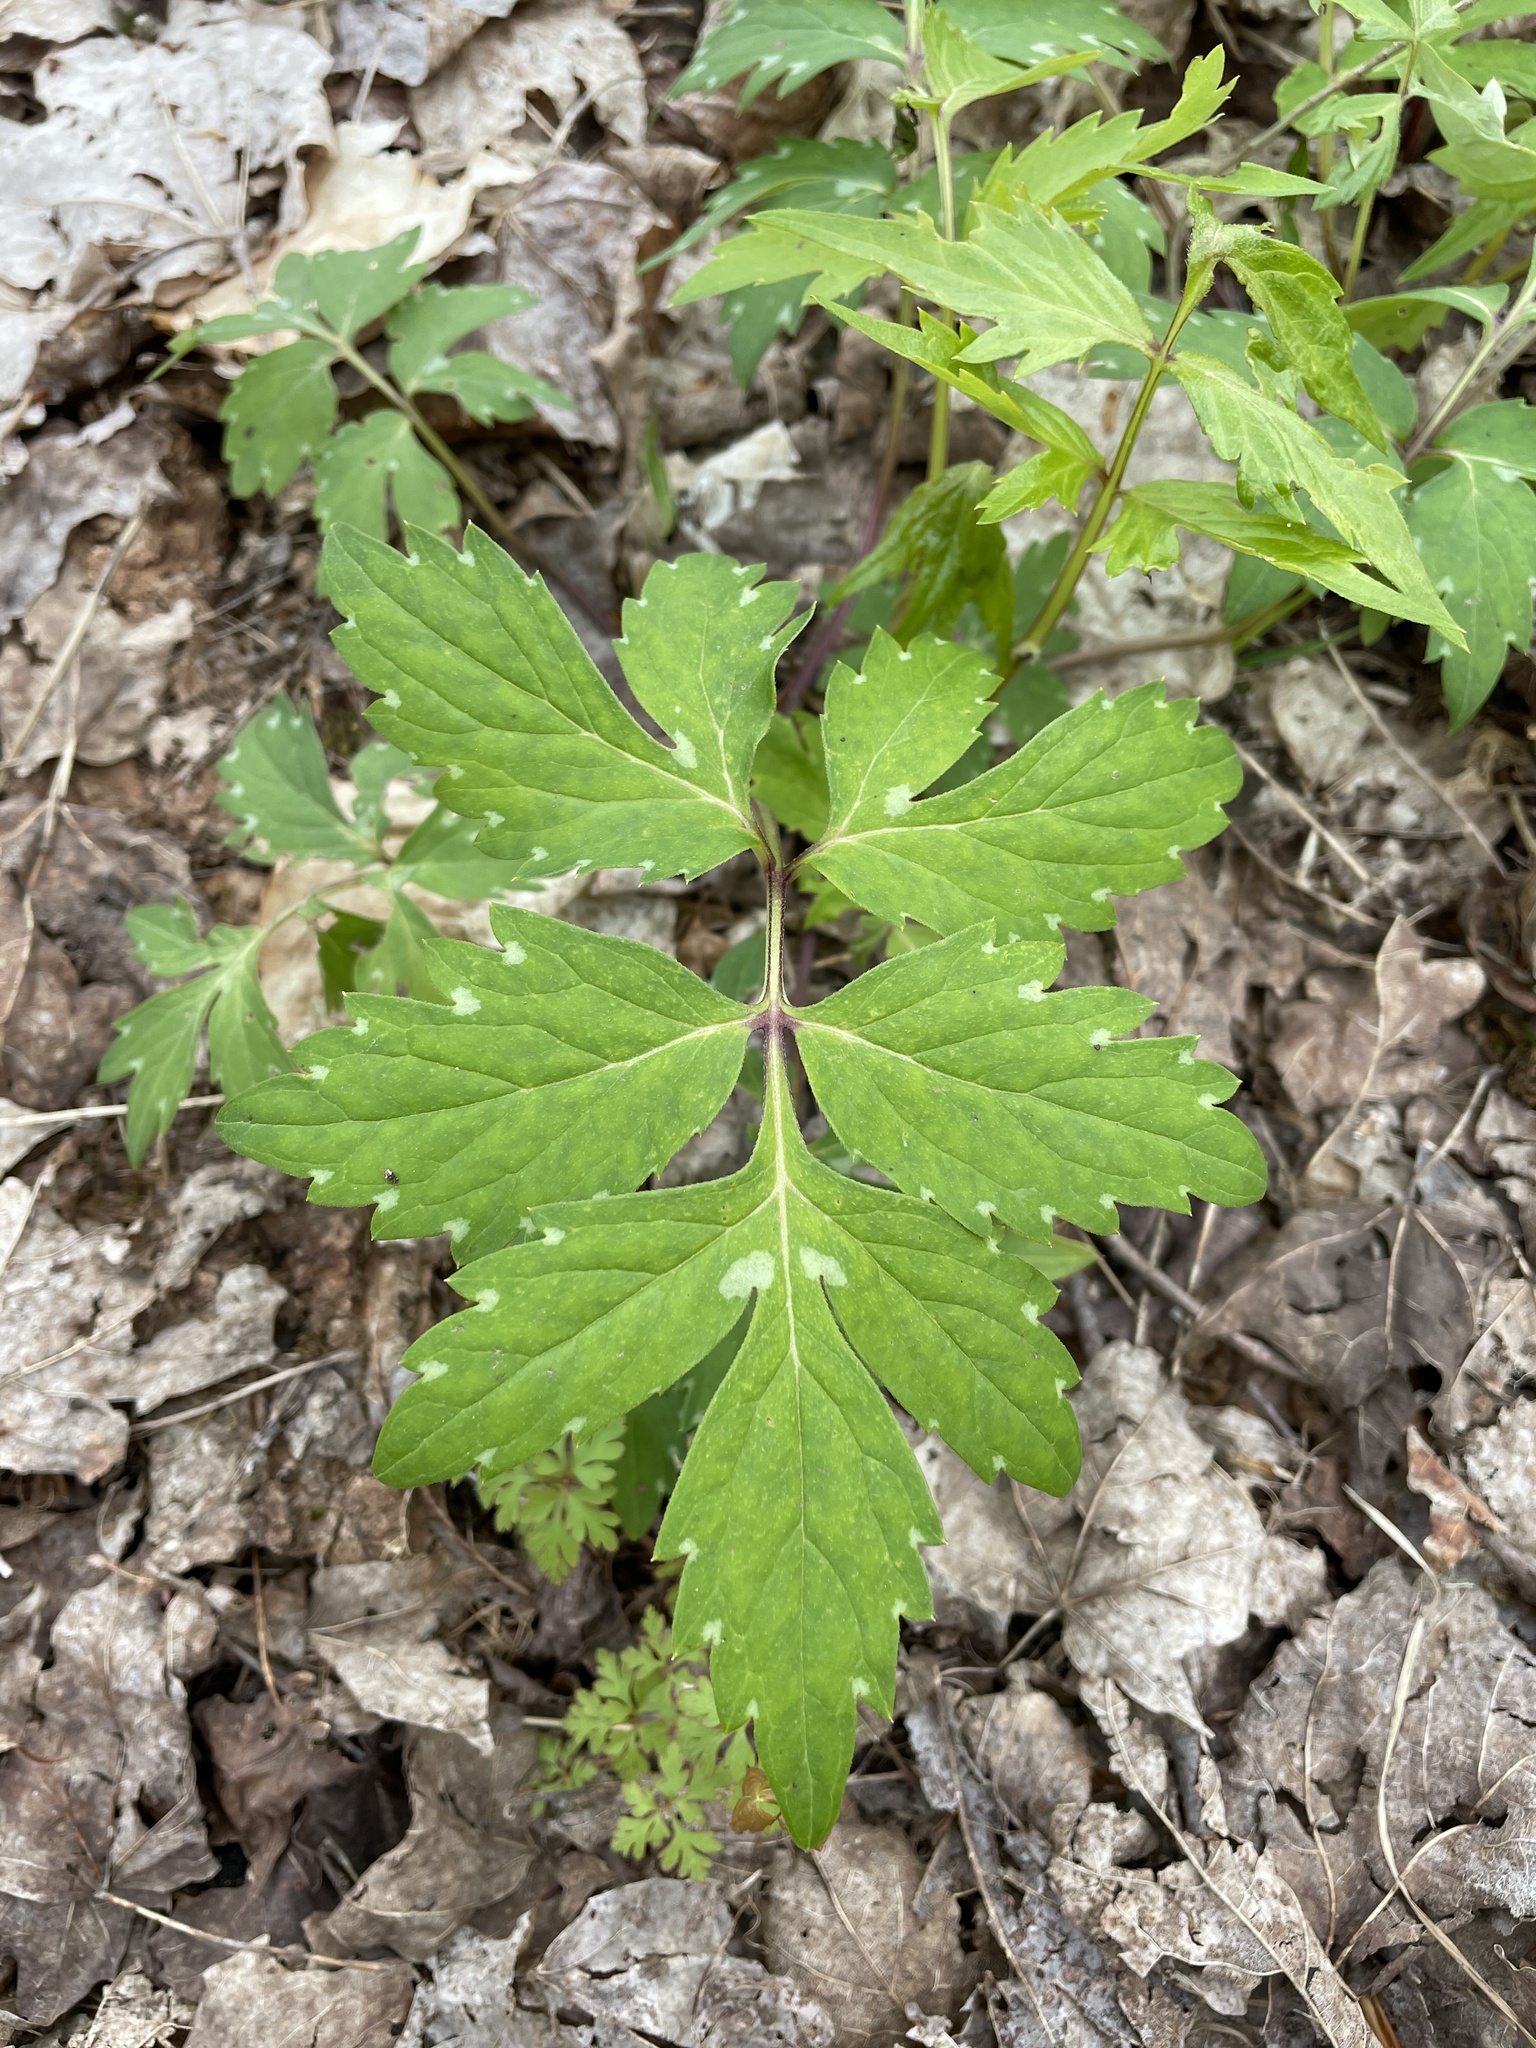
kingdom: Plantae
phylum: Tracheophyta
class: Magnoliopsida
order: Boraginales
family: Hydrophyllaceae
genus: Hydrophyllum
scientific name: Hydrophyllum virginianum
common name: Virginia waterleaf
